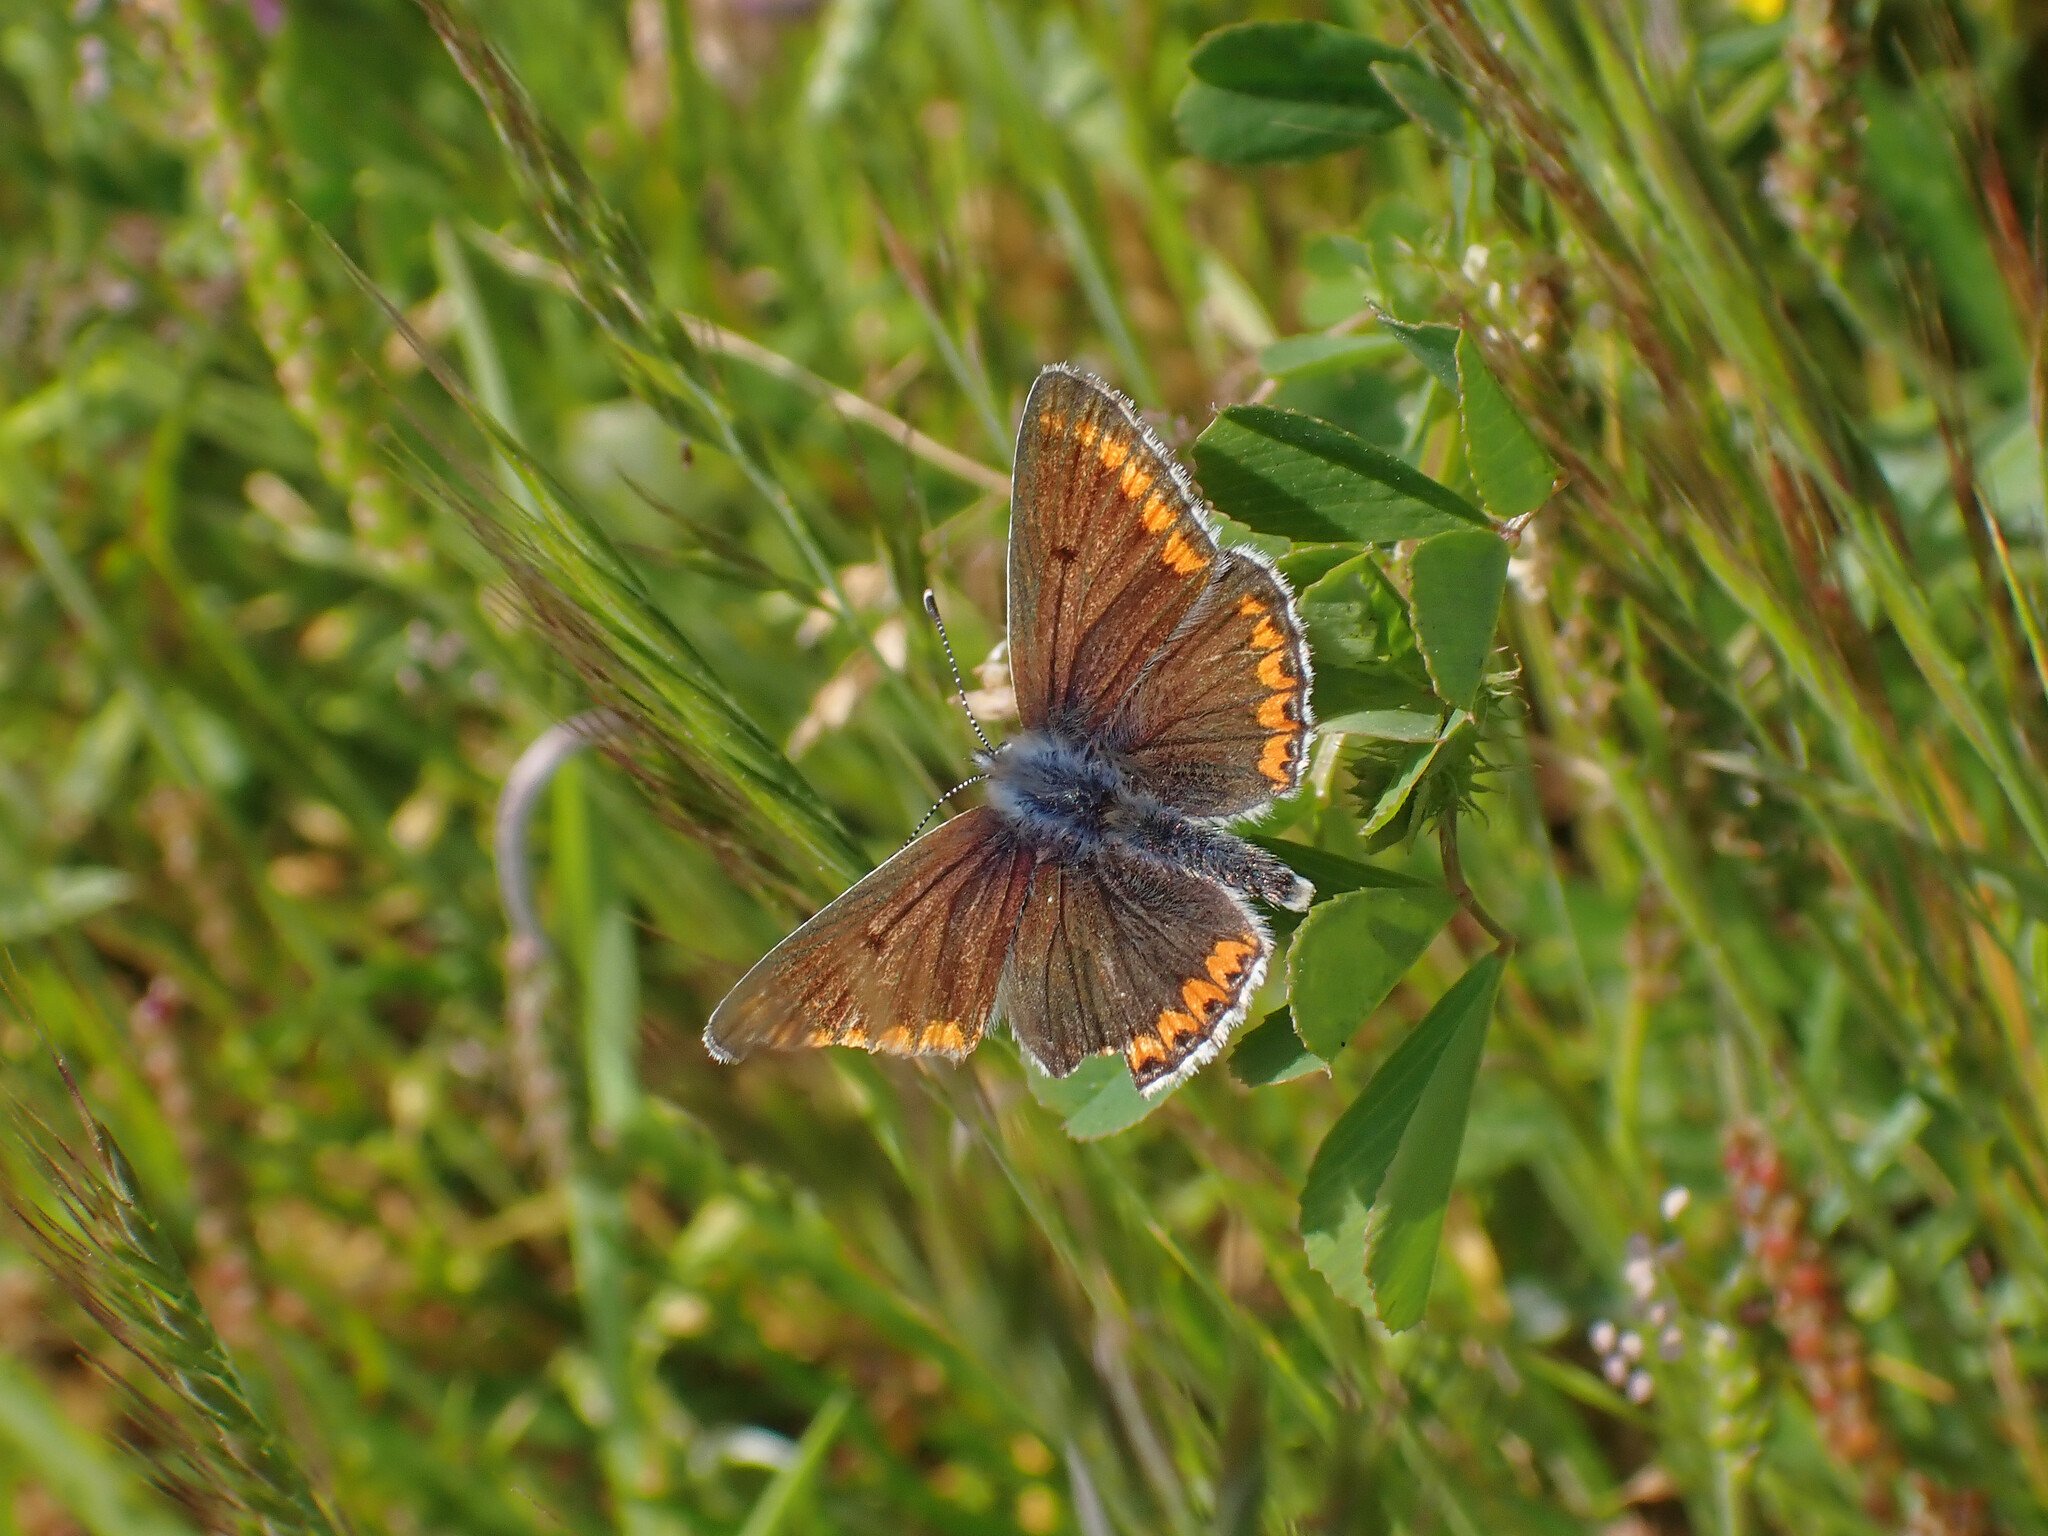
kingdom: Animalia
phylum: Arthropoda
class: Insecta
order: Lepidoptera
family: Lycaenidae
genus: Polyommatus
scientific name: Polyommatus icarus
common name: Common blue
